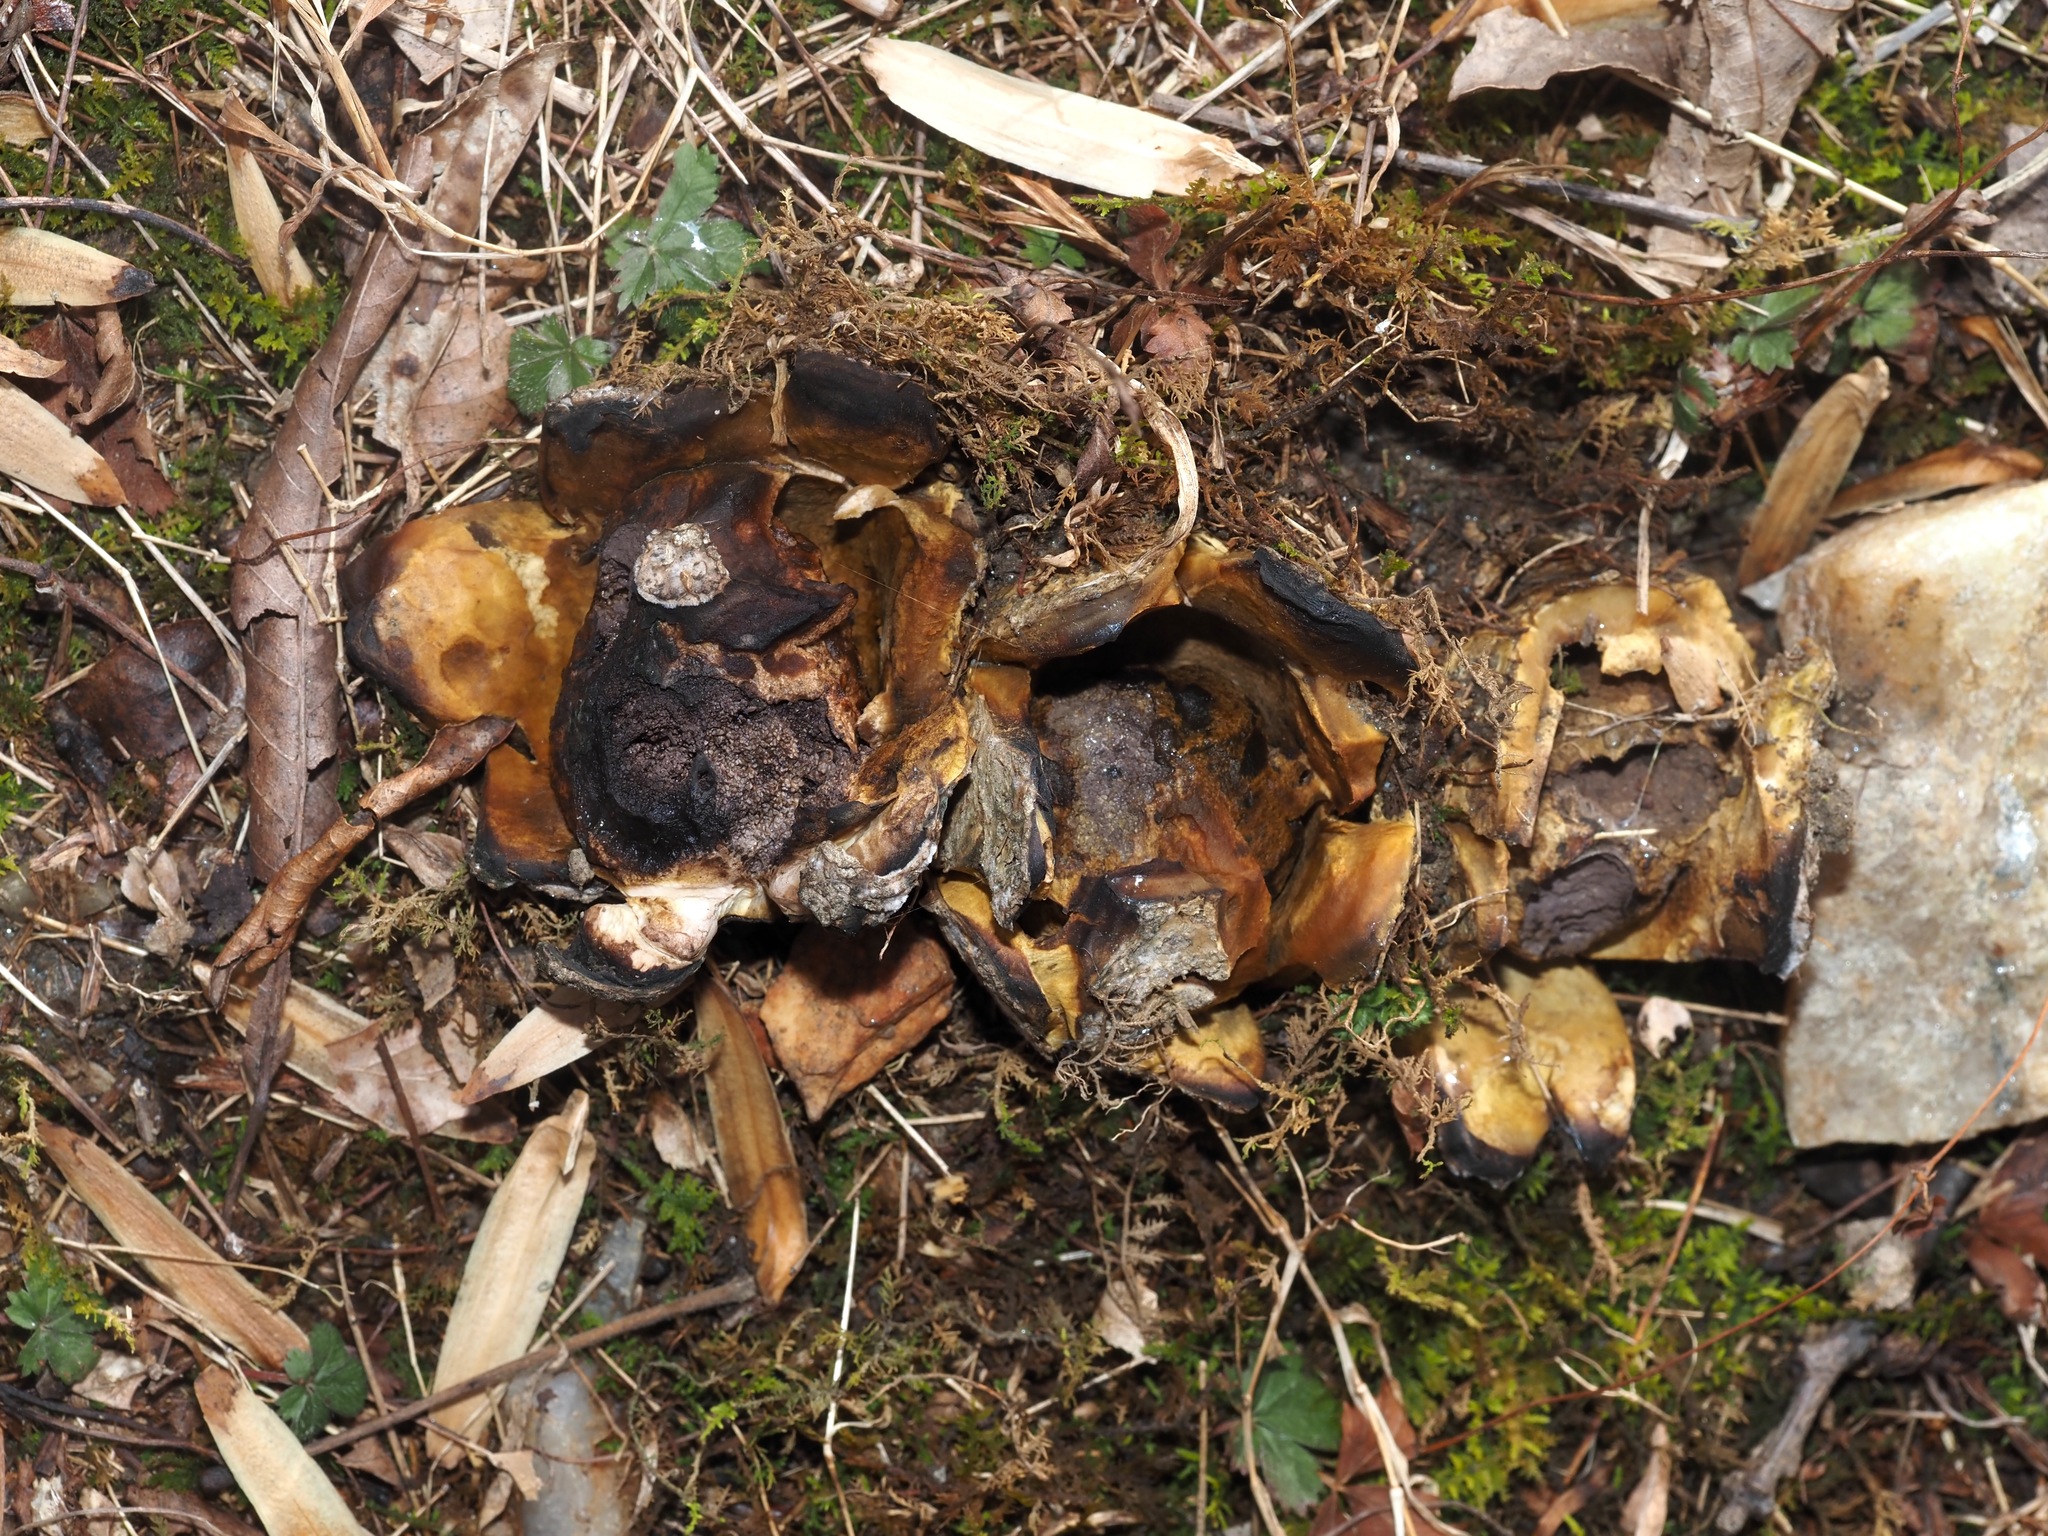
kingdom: Fungi
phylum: Basidiomycota
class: Agaricomycetes
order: Boletales
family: Sclerodermataceae
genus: Scleroderma
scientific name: Scleroderma polyrhizum
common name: Many-rooted earthball
